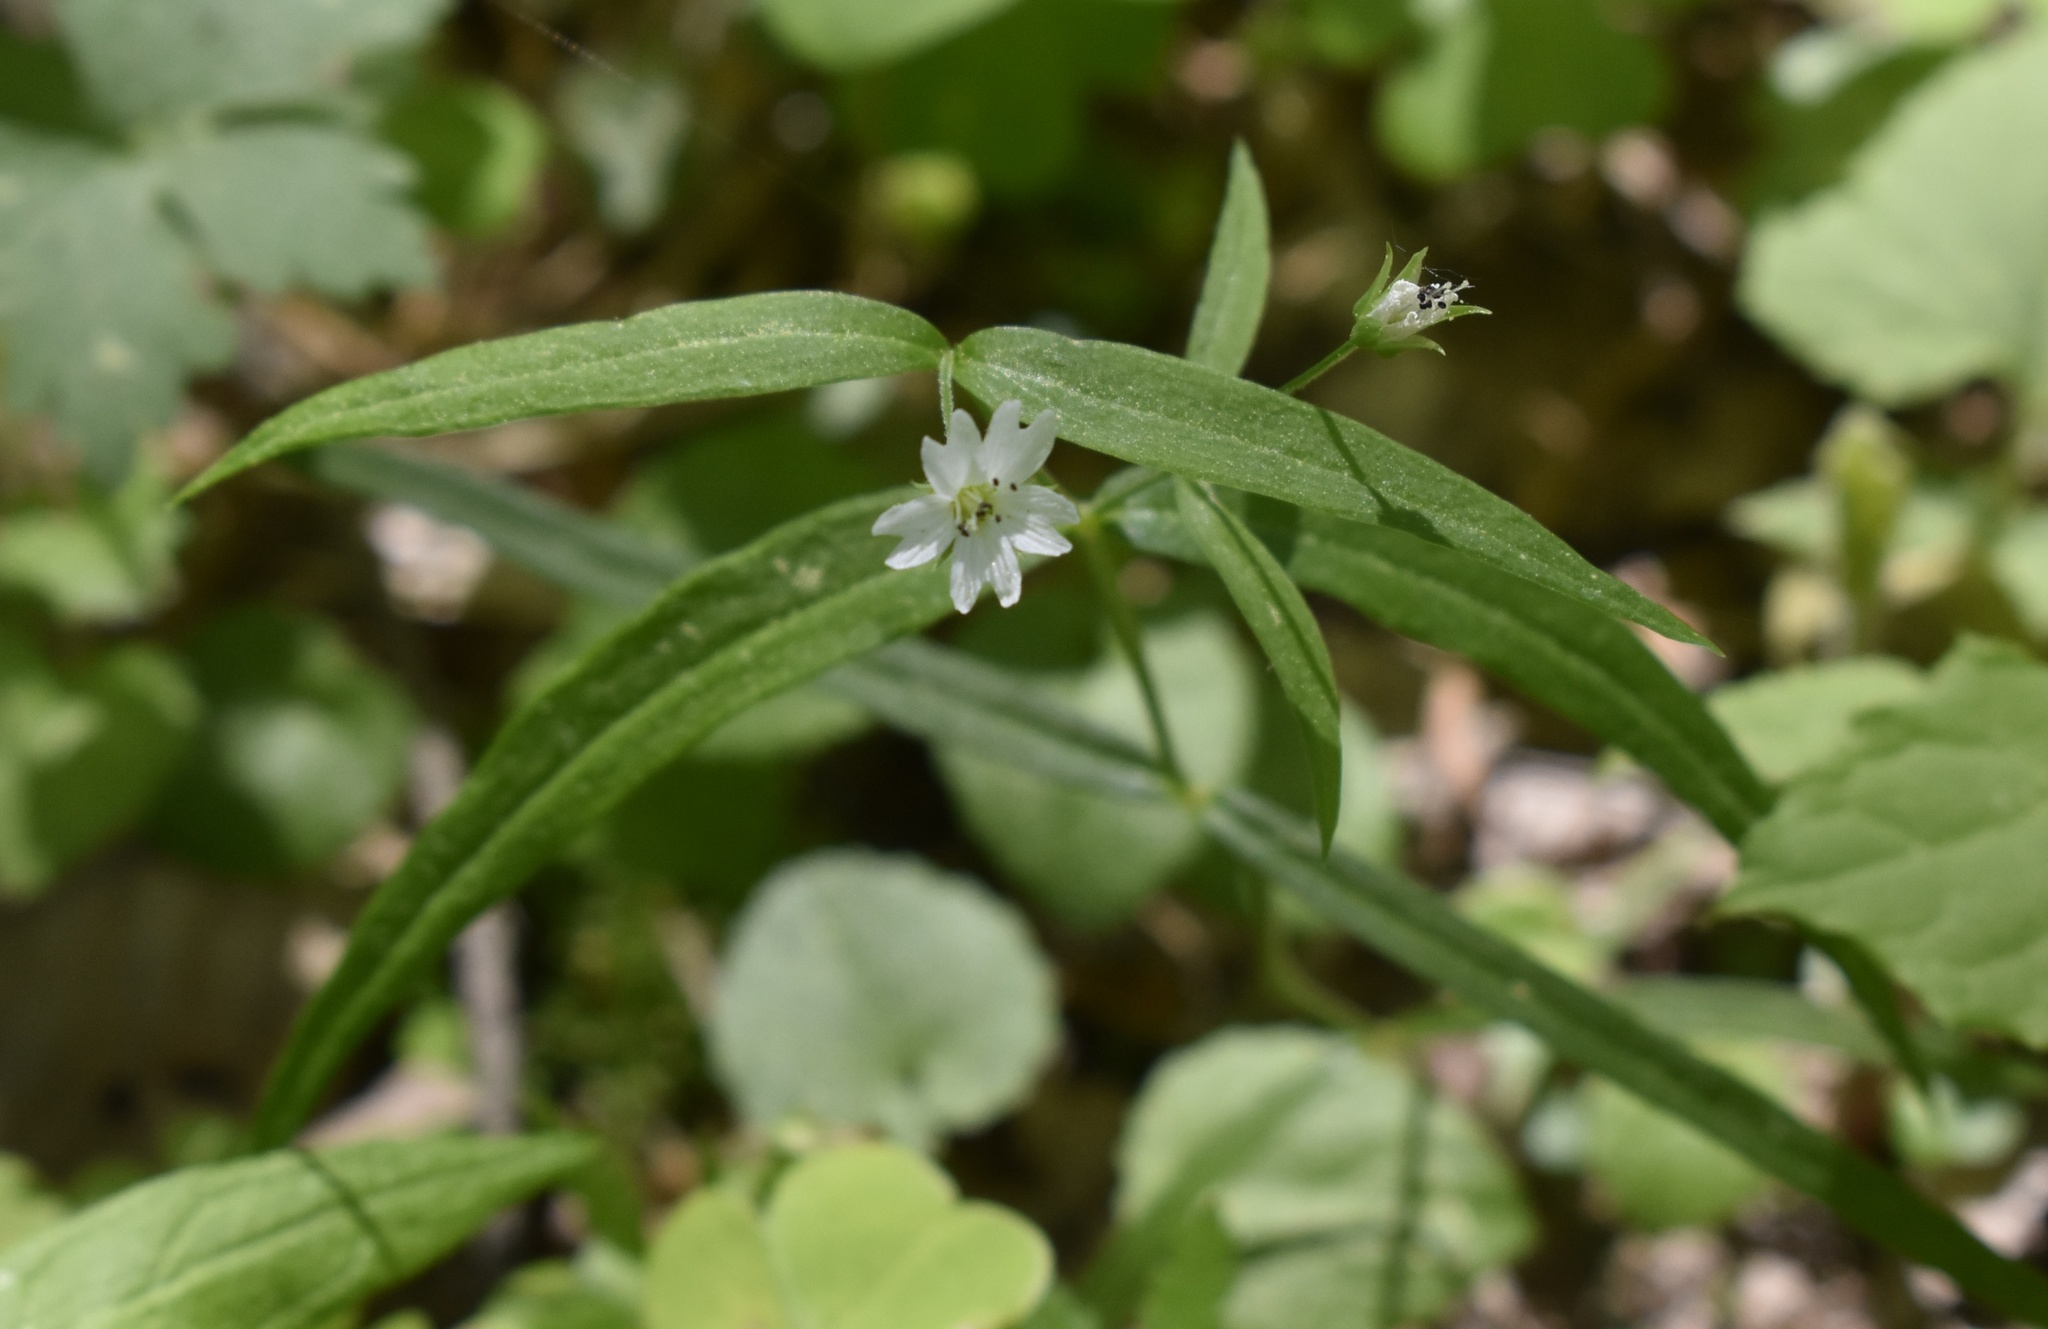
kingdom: Plantae
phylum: Tracheophyta
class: Magnoliopsida
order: Caryophyllales
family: Caryophyllaceae
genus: Pseudostellaria
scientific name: Pseudostellaria sylvatica
